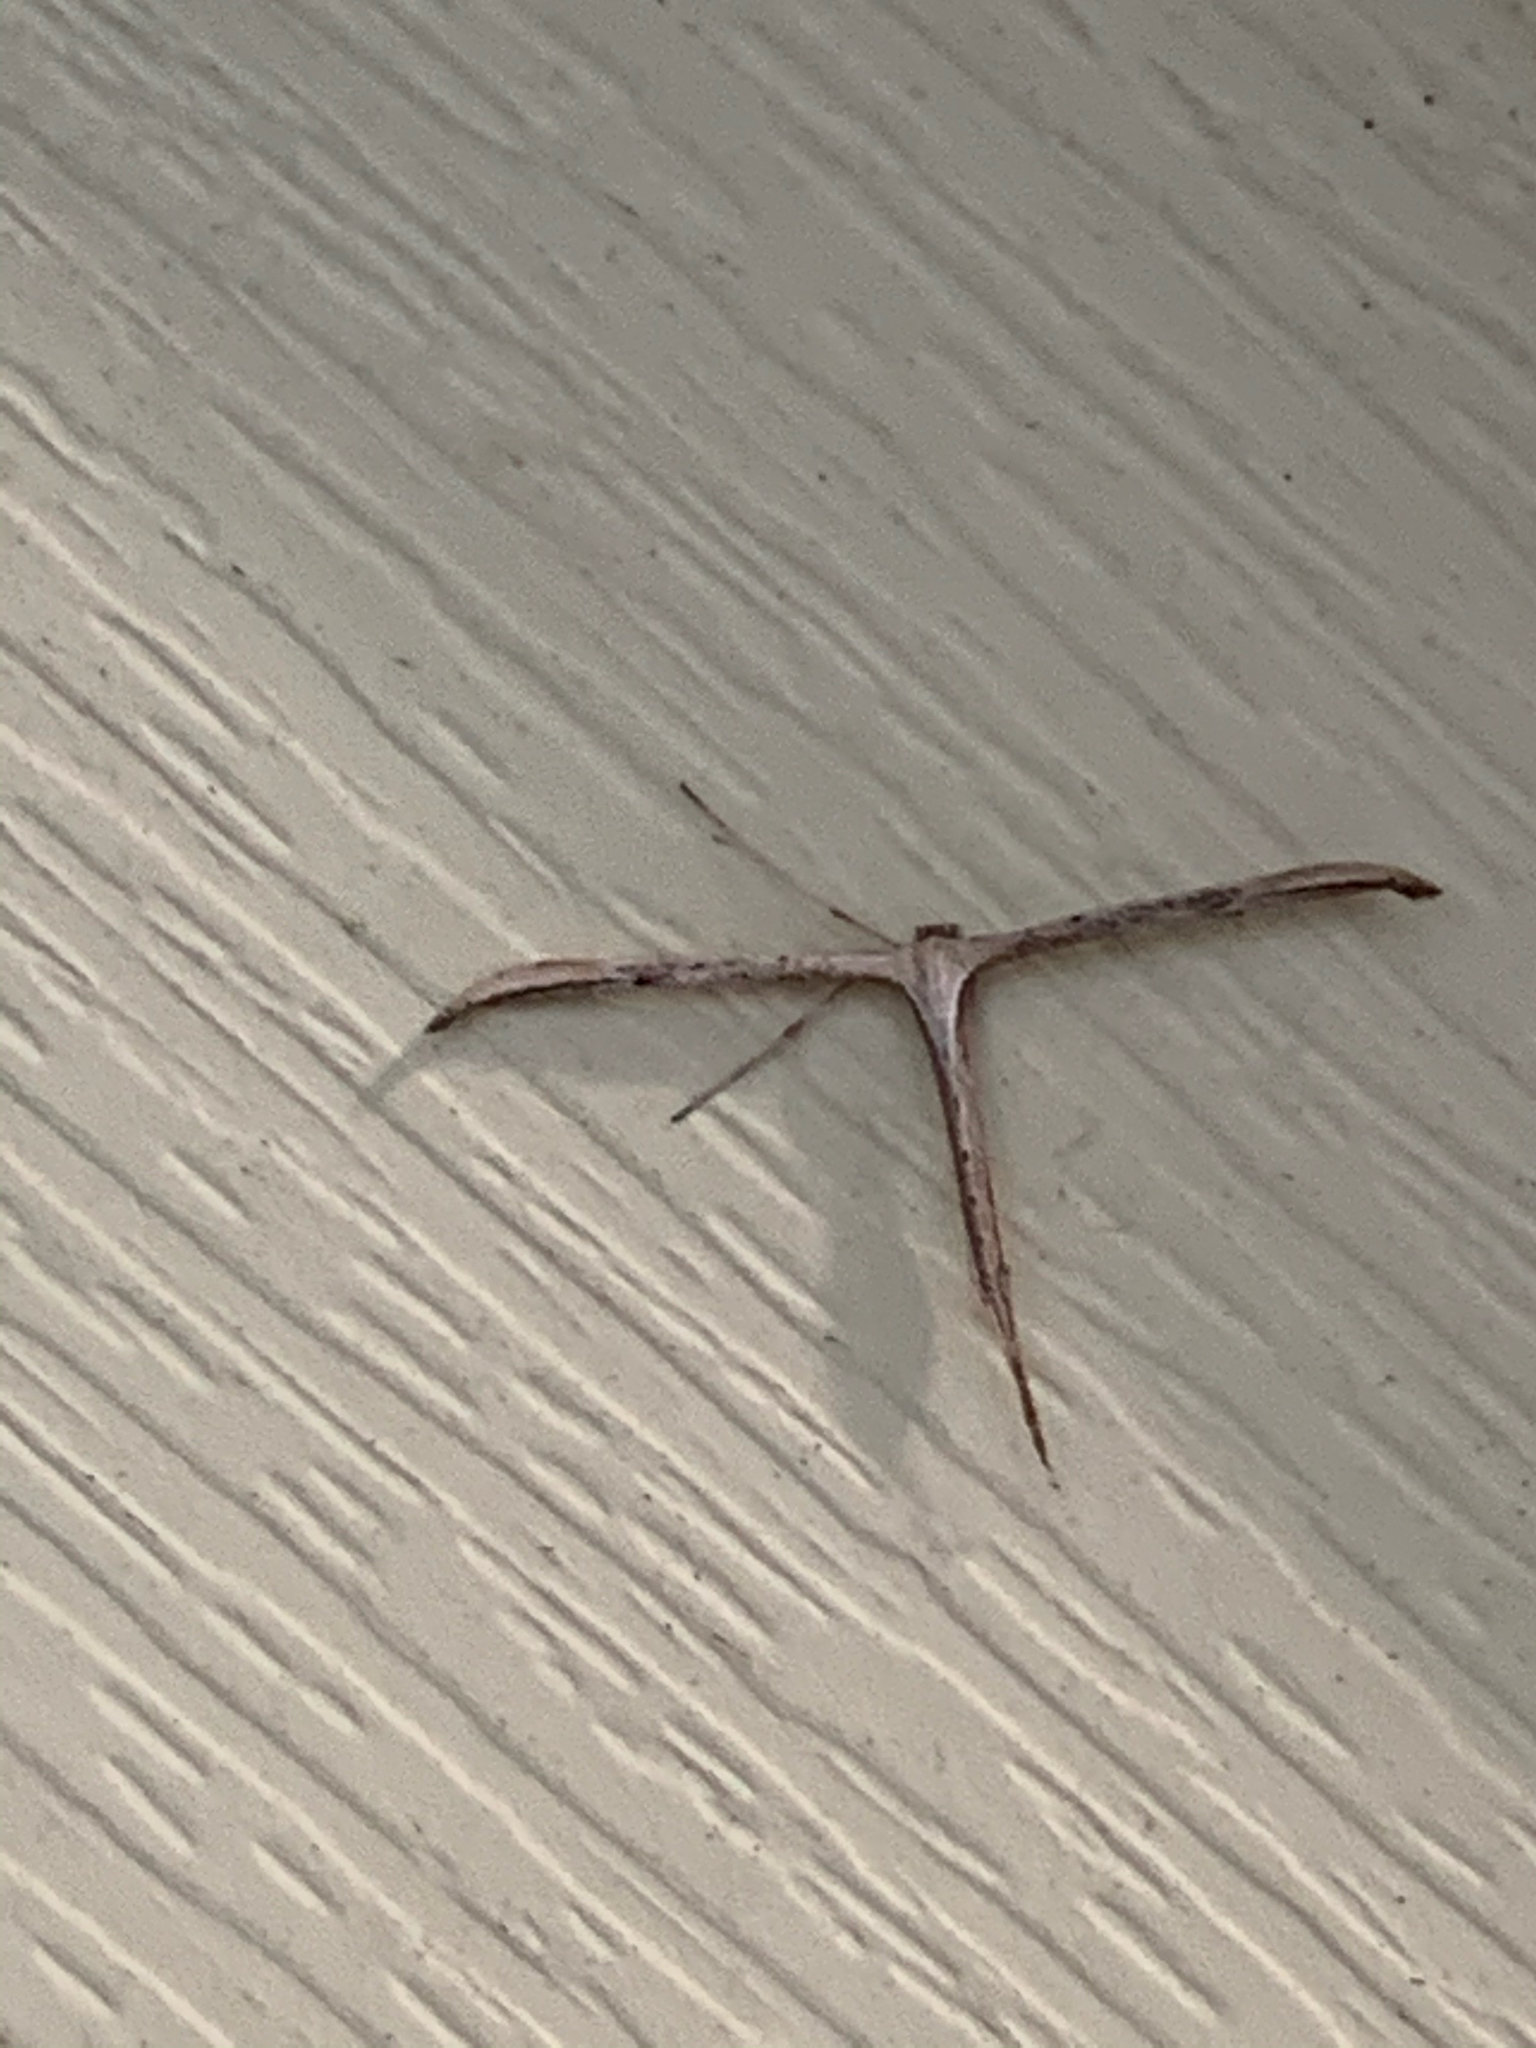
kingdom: Animalia
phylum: Arthropoda
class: Insecta
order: Lepidoptera
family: Pterophoridae
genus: Emmelina
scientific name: Emmelina monodactyla
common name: Common plume
